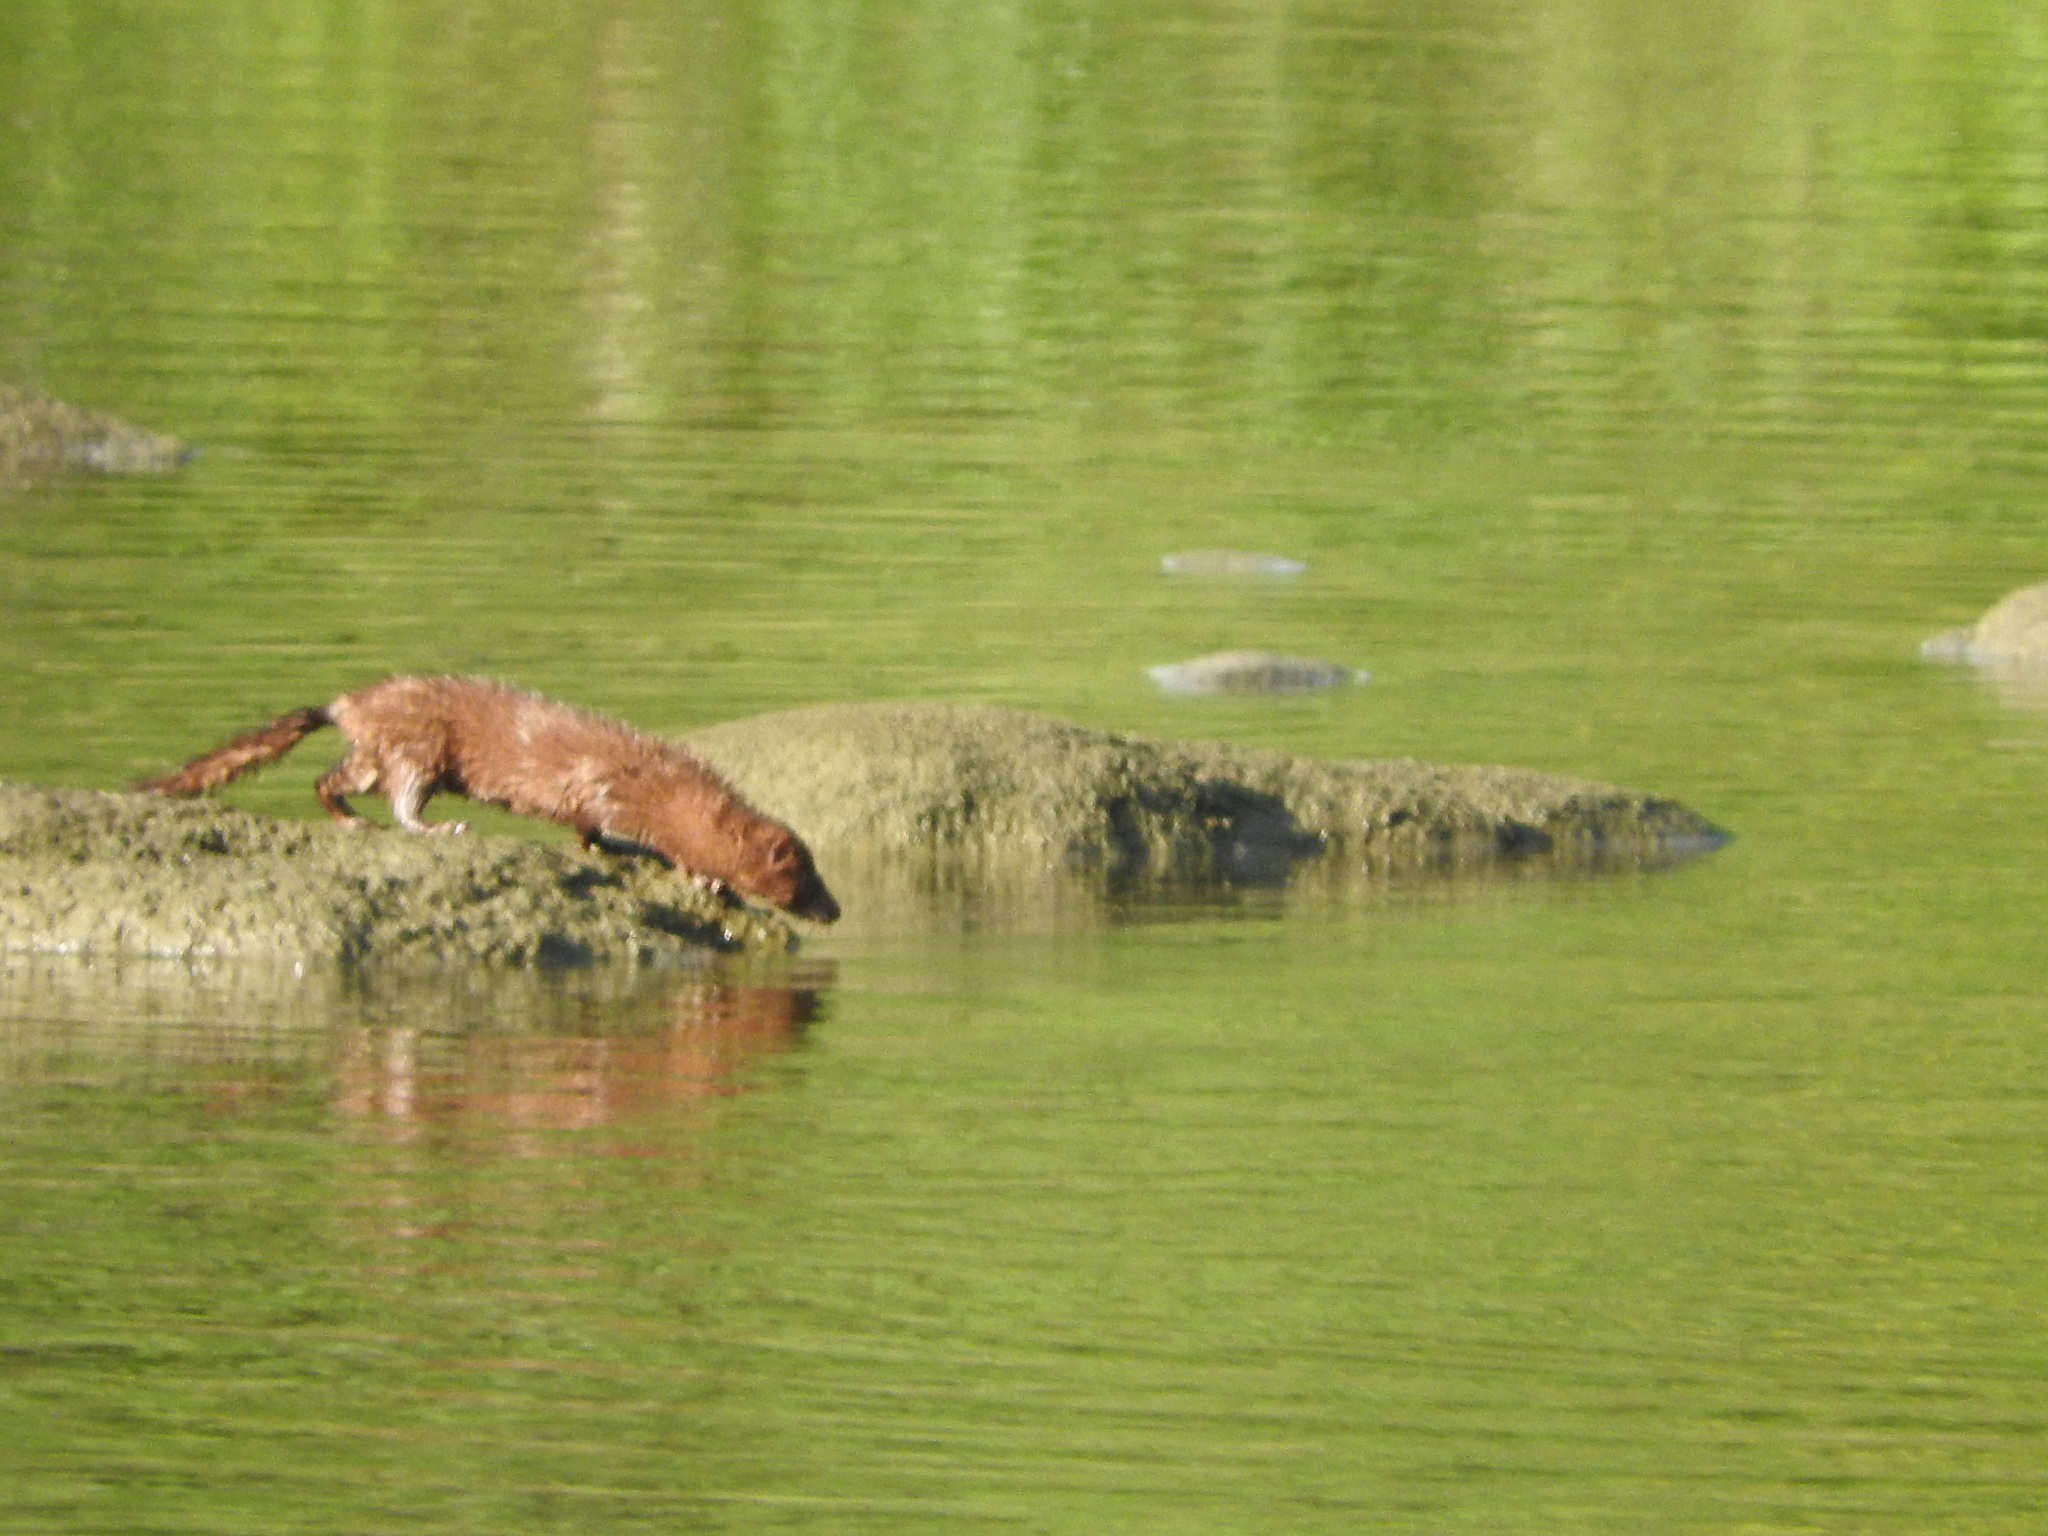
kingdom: Animalia
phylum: Chordata
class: Mammalia
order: Carnivora
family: Mustelidae
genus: Mustela
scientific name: Mustela
